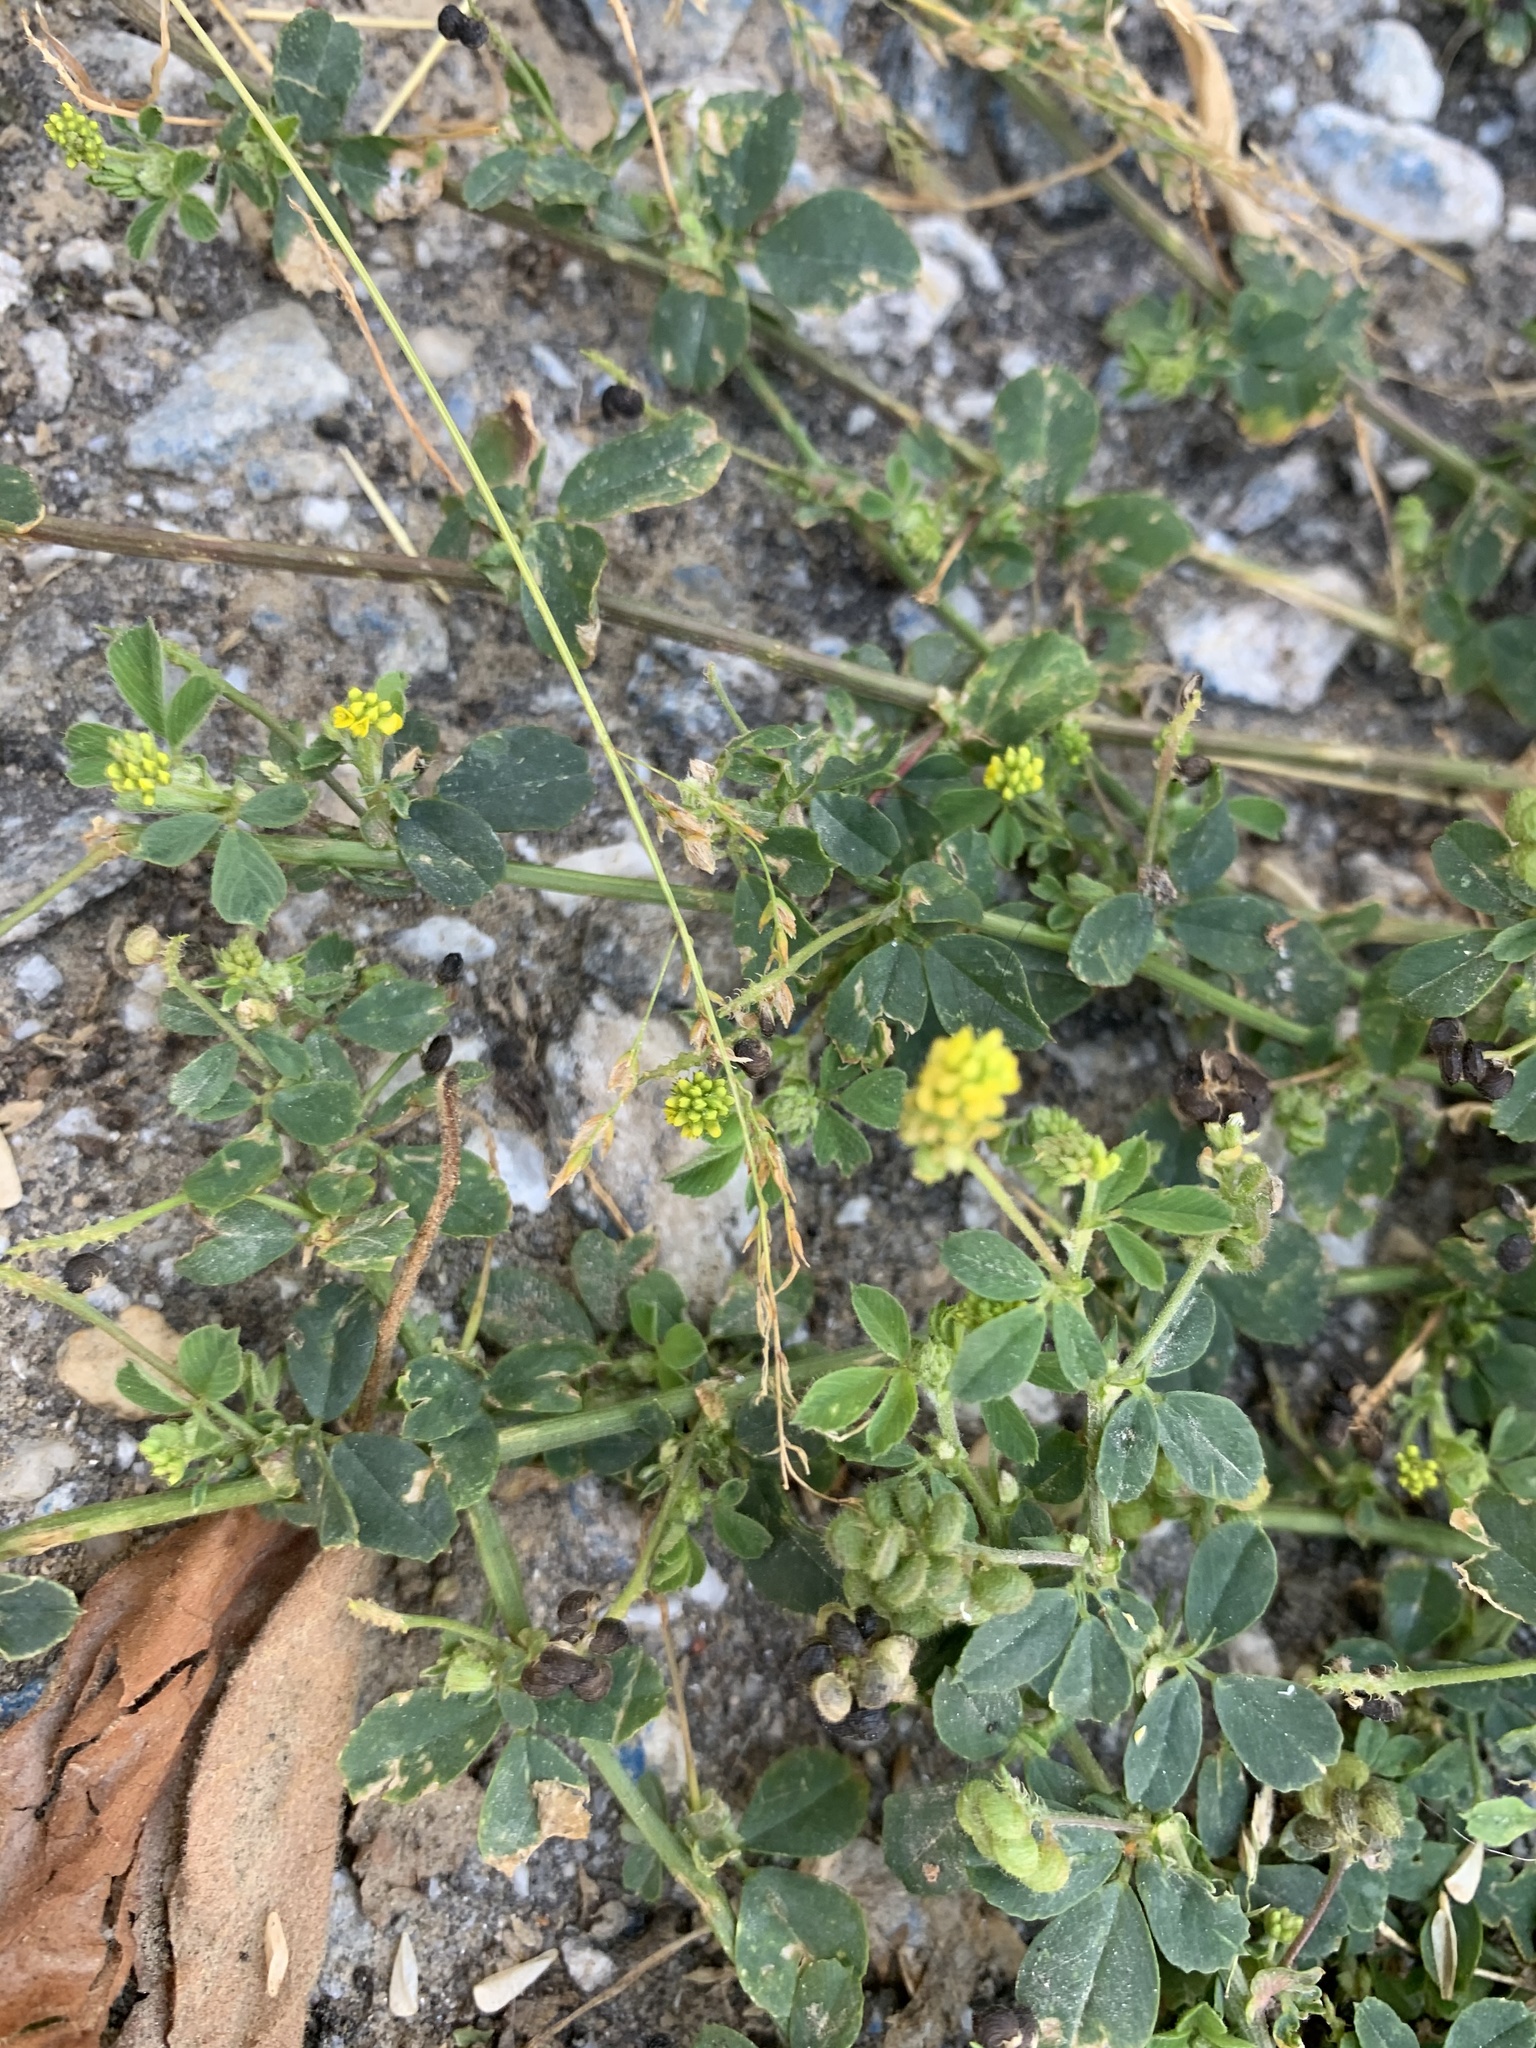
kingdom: Plantae
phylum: Tracheophyta
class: Magnoliopsida
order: Fabales
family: Fabaceae
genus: Medicago
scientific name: Medicago lupulina
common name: Black medick
